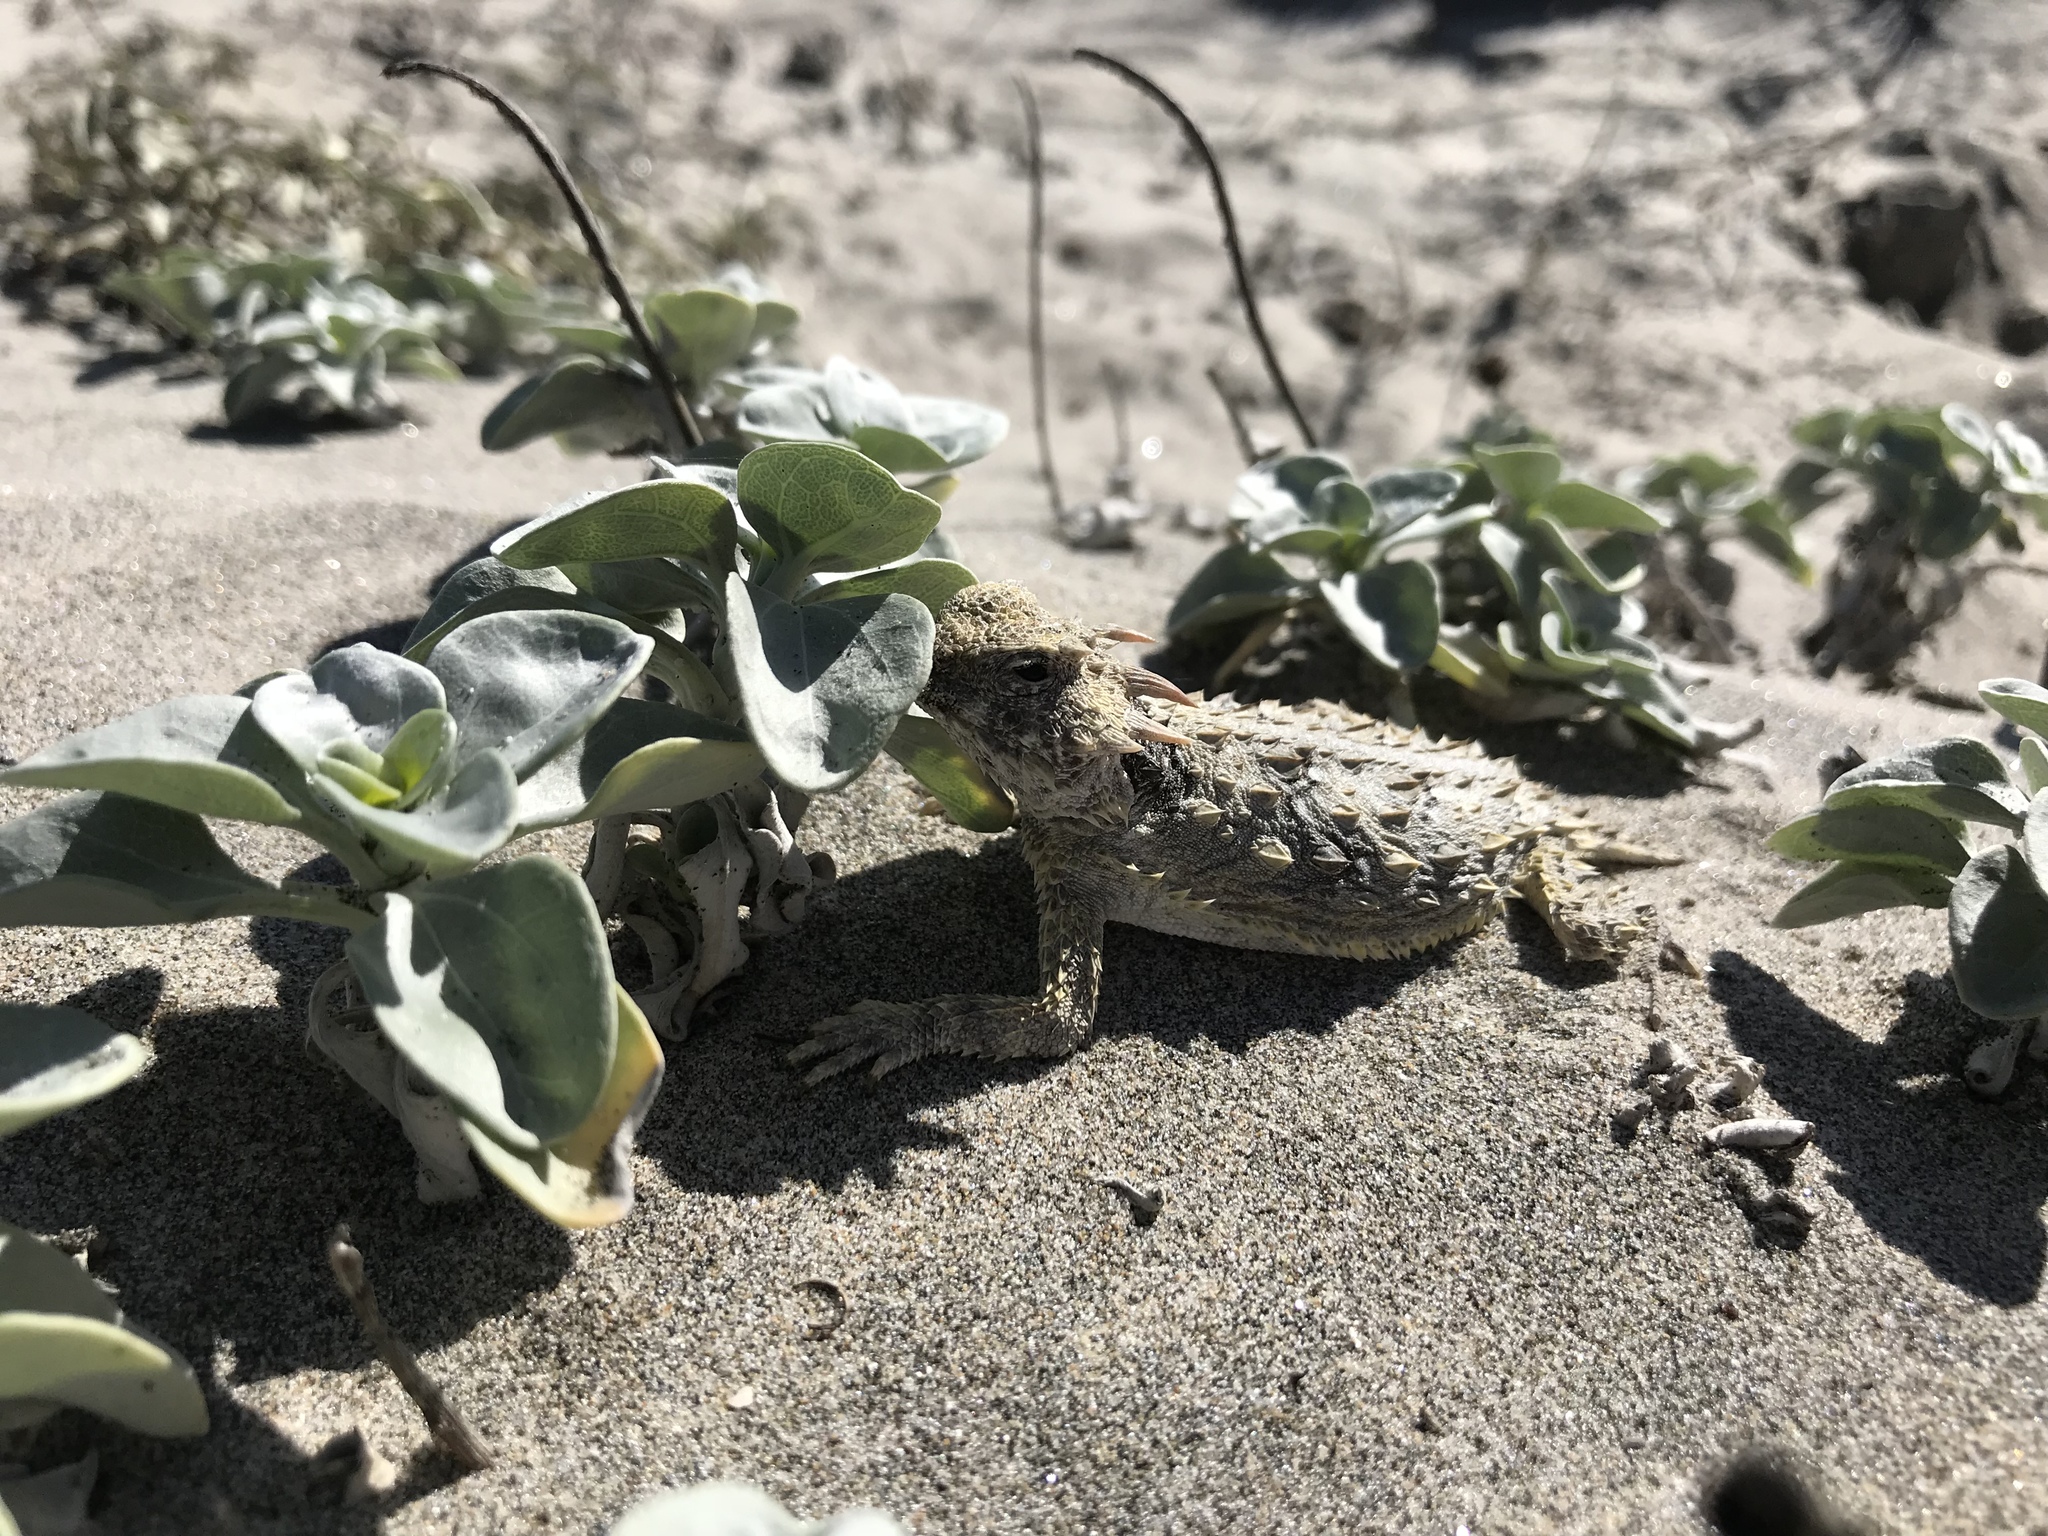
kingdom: Animalia
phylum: Chordata
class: Squamata
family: Phrynosomatidae
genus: Phrynosoma
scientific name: Phrynosoma cerroense
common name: Cedros island horned lizard
